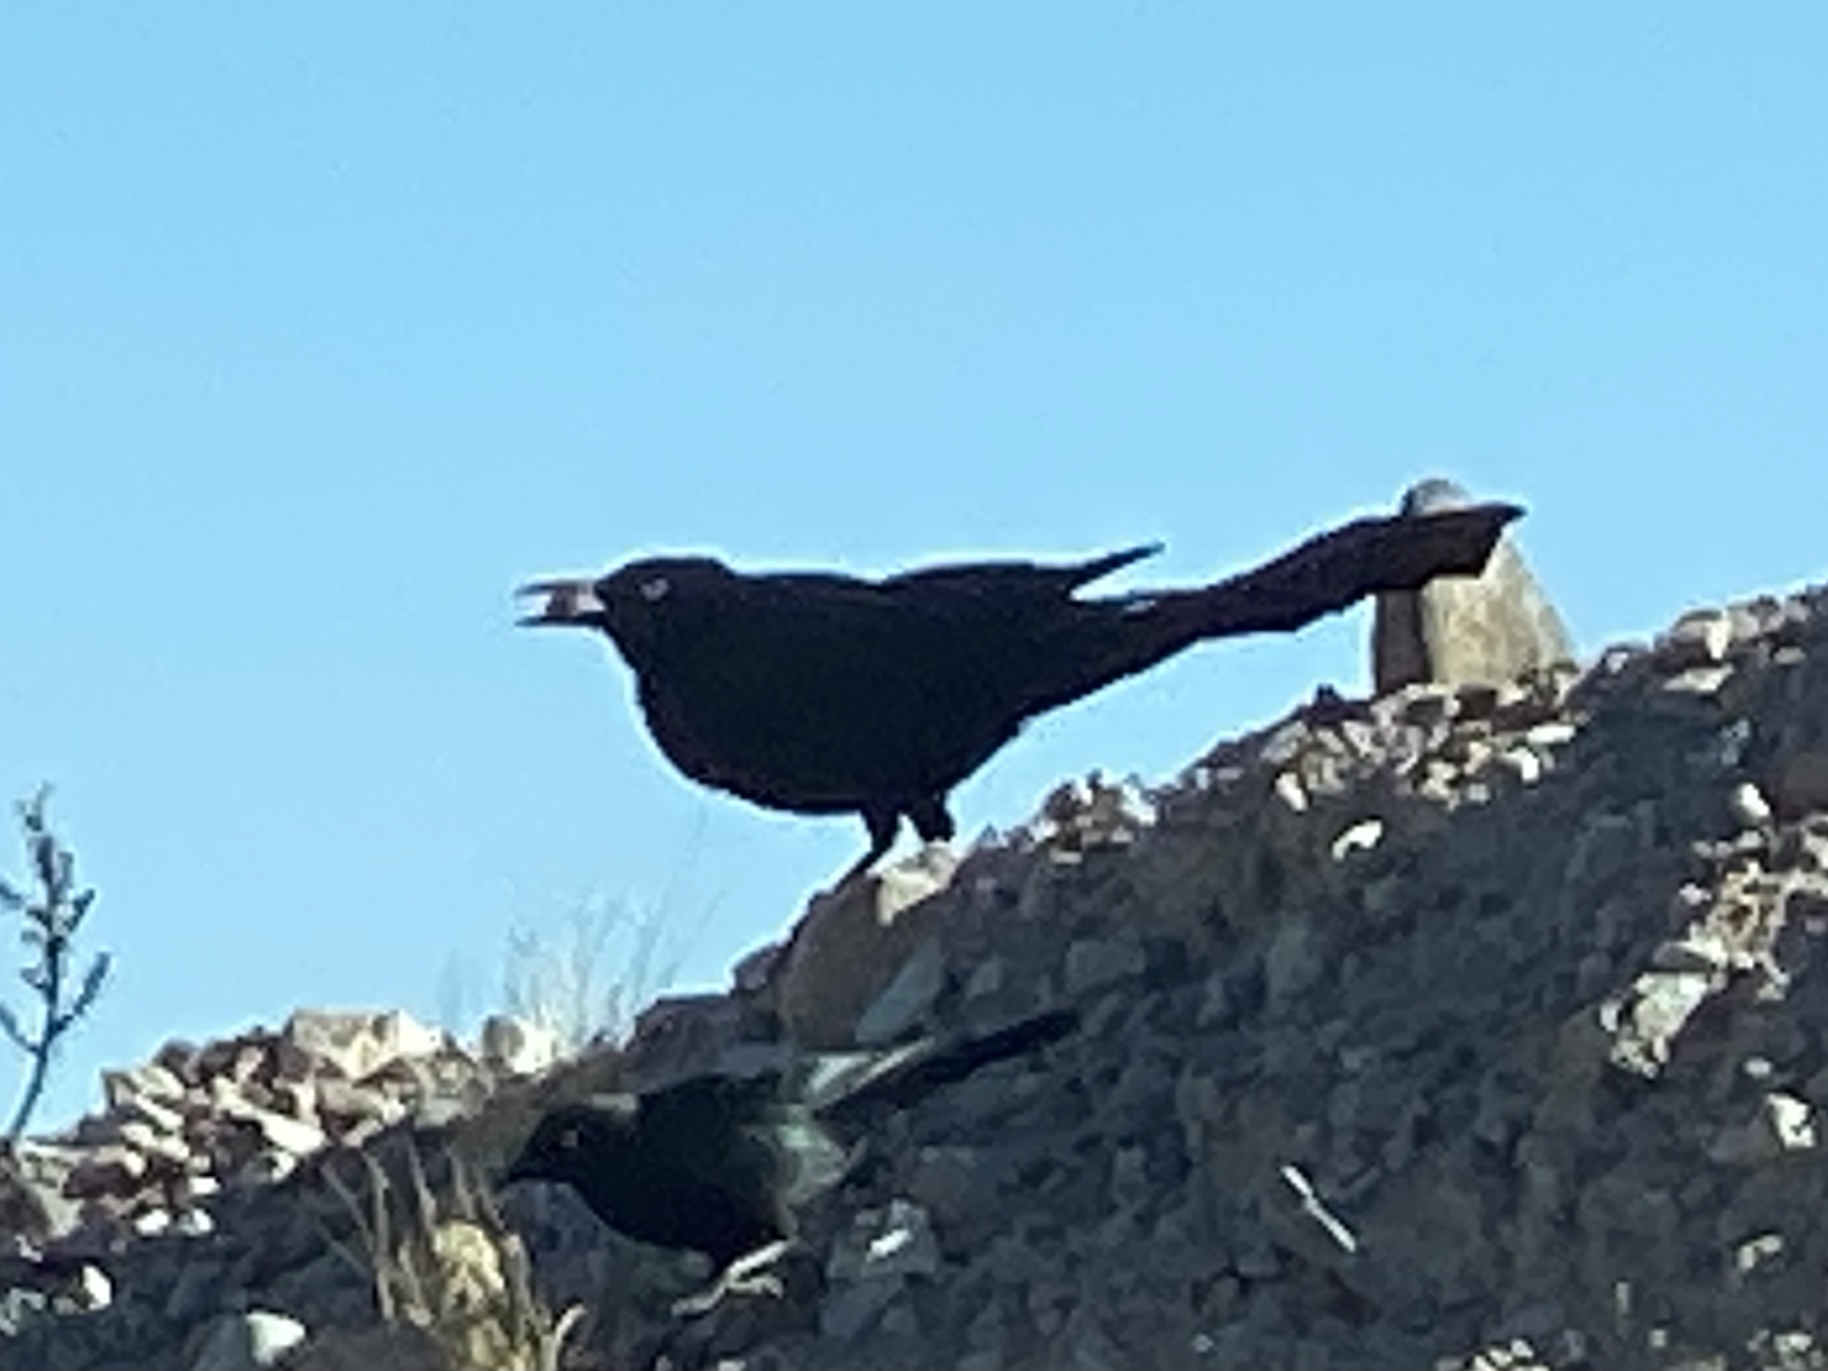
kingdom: Animalia
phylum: Chordata
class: Aves
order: Passeriformes
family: Icteridae
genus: Quiscalus
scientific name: Quiscalus mexicanus
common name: Great-tailed grackle
